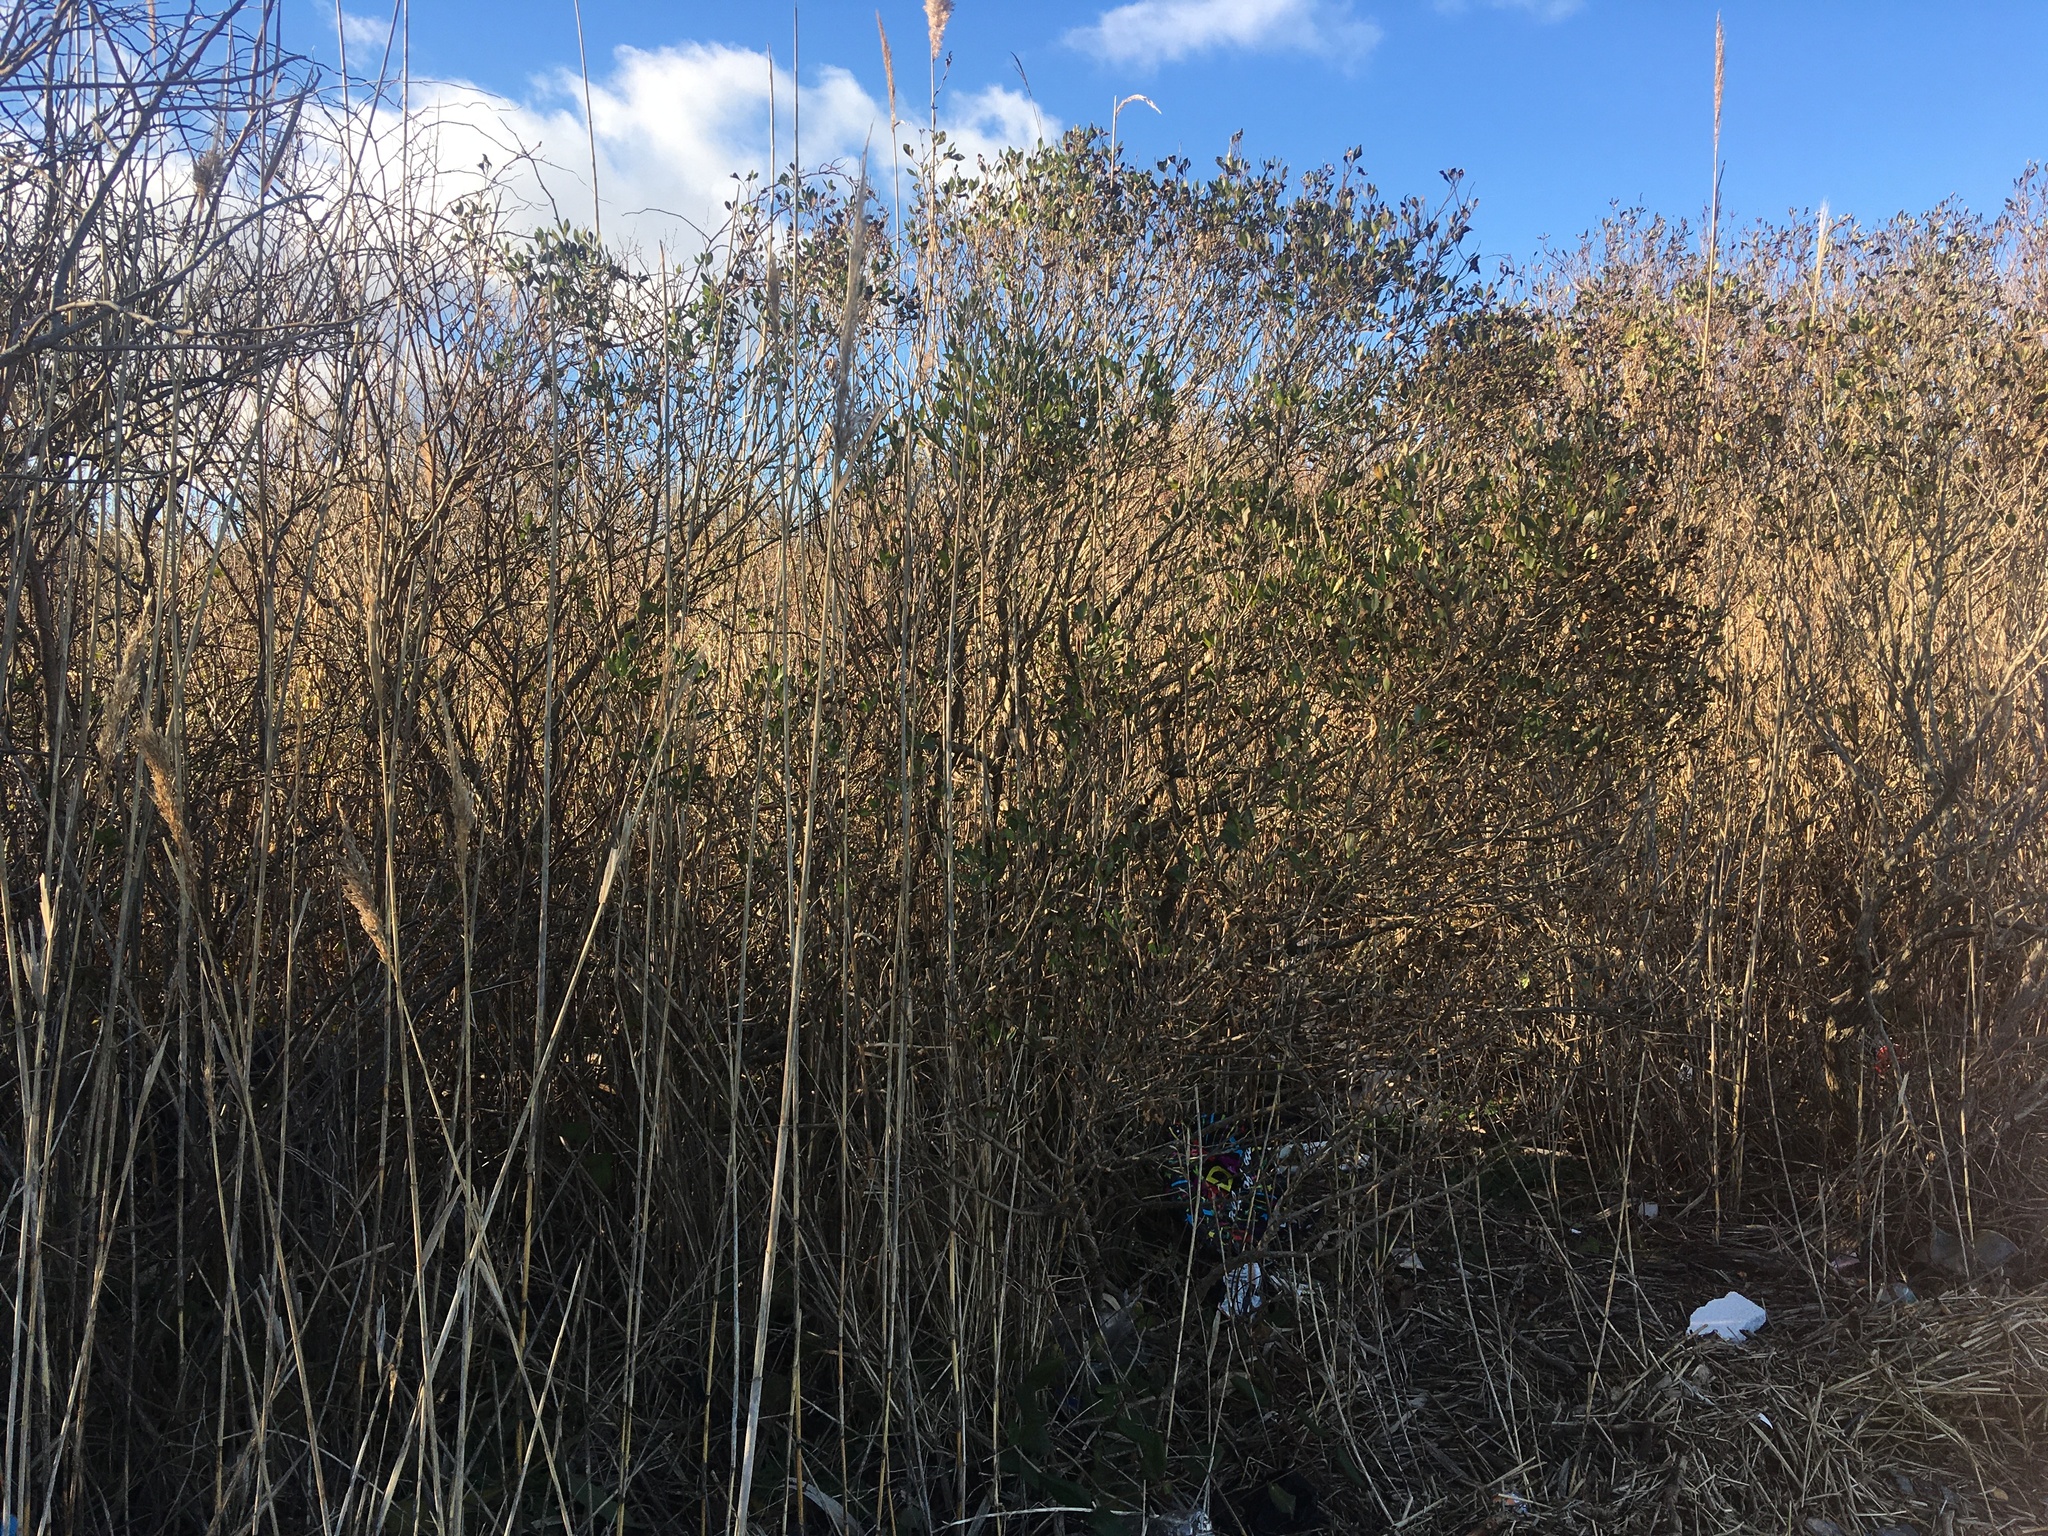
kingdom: Plantae
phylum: Tracheophyta
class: Magnoliopsida
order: Asterales
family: Asteraceae
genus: Baccharis
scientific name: Baccharis halimifolia
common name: Eastern baccharis
